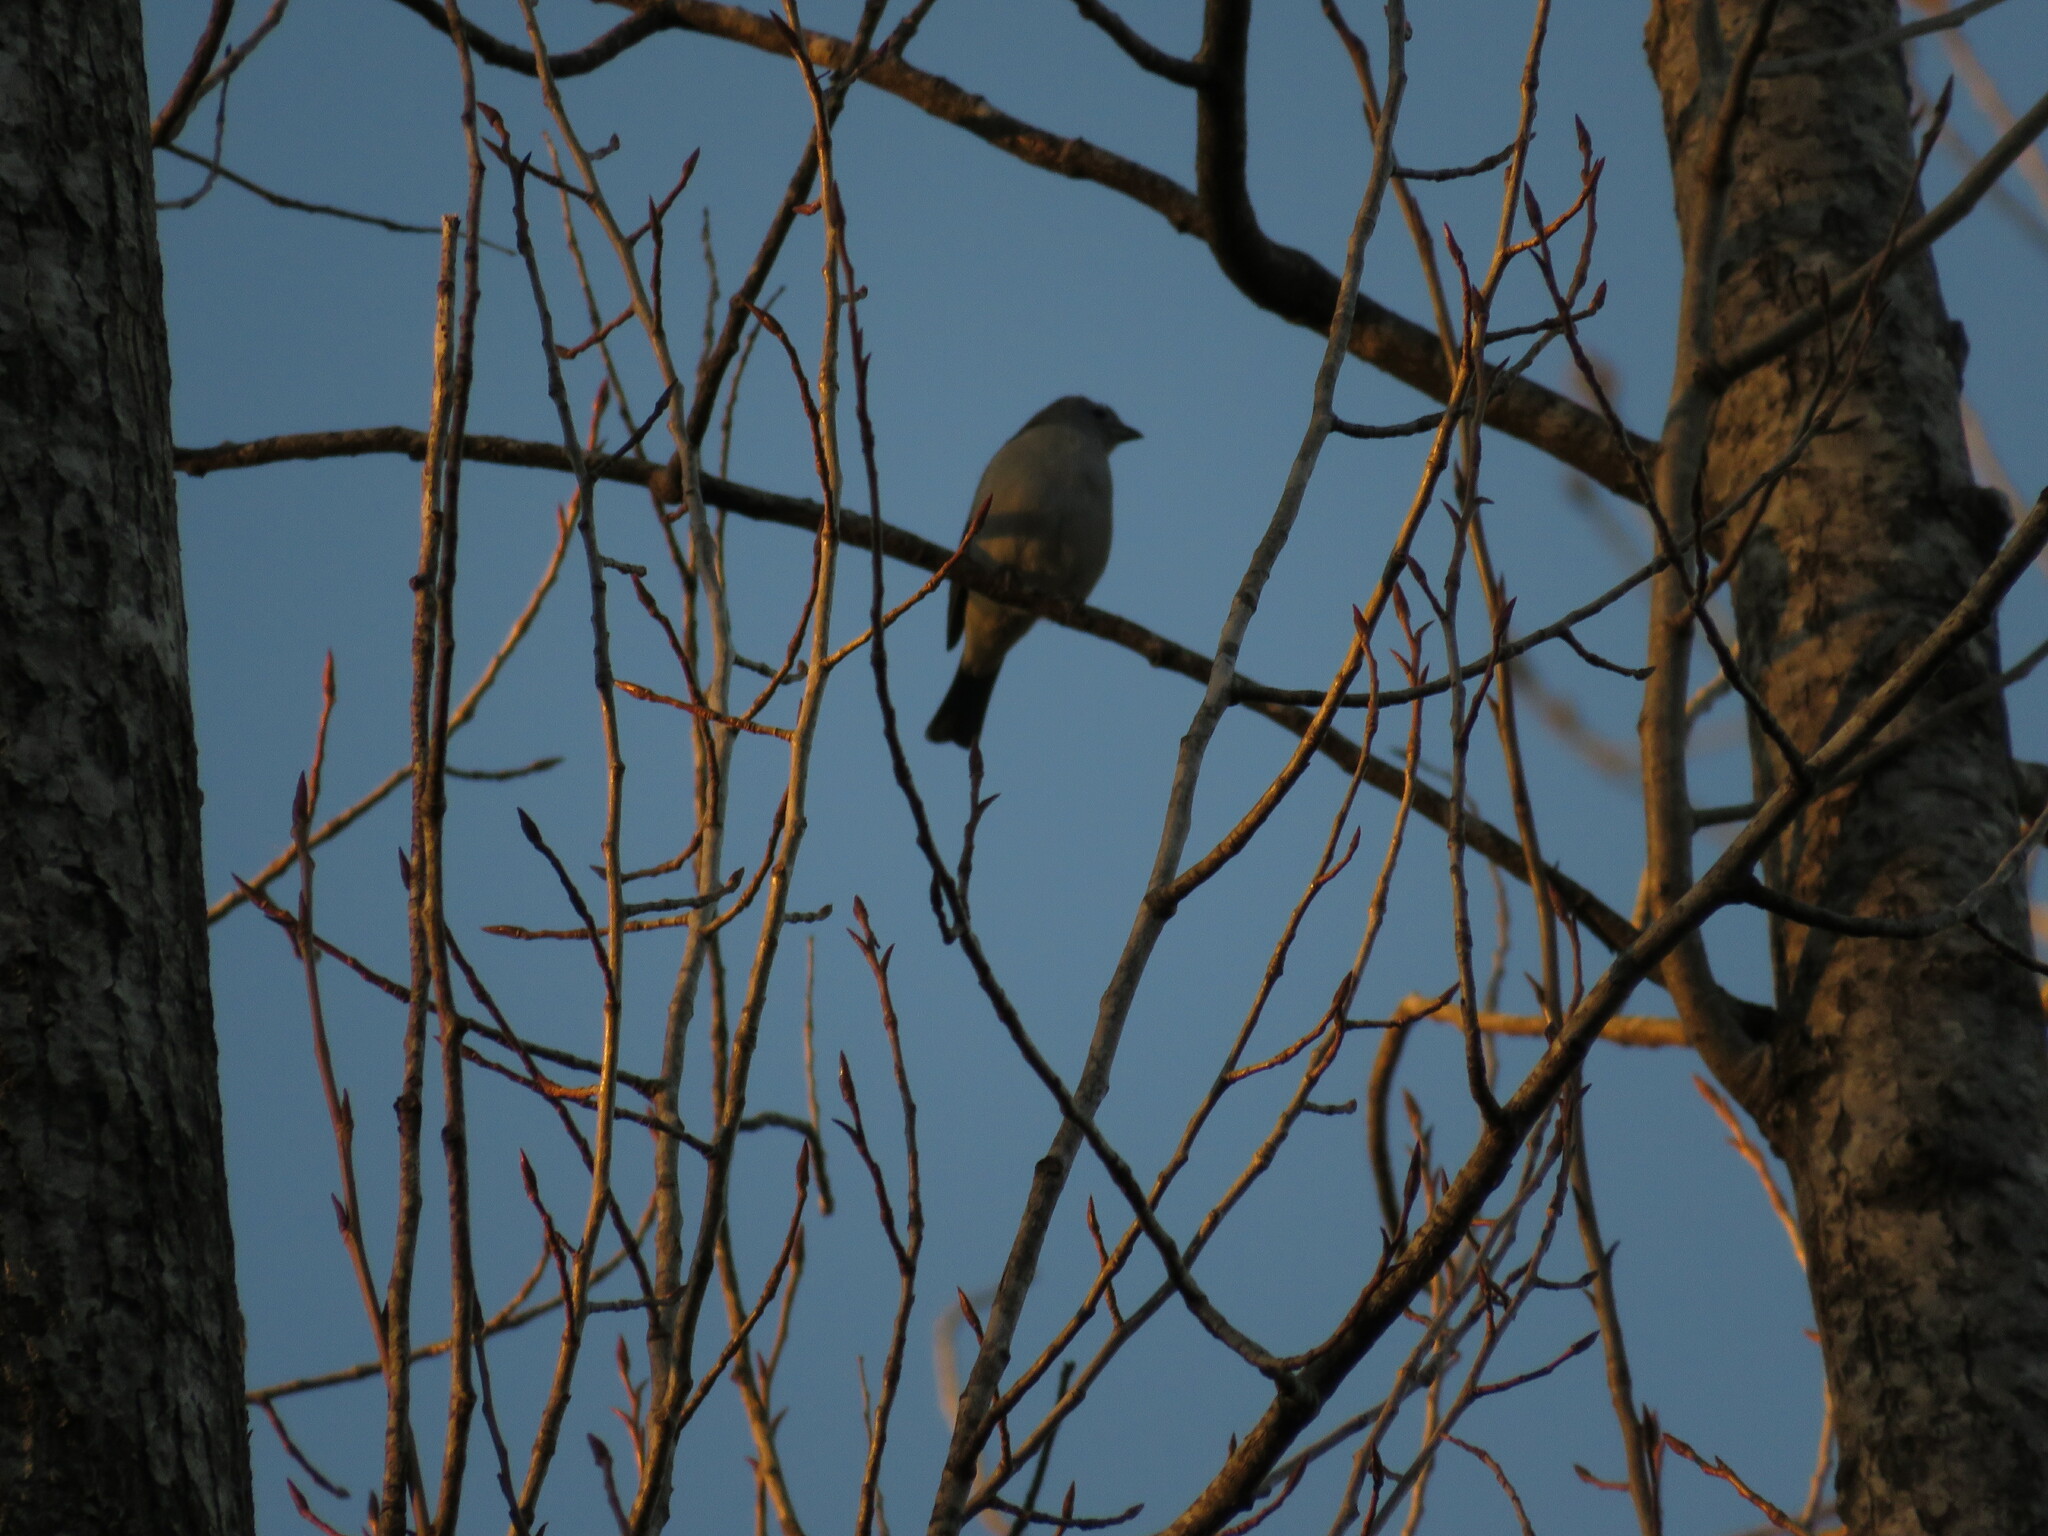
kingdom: Animalia
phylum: Chordata
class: Aves
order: Passeriformes
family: Thraupidae
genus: Thraupis
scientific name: Thraupis sayaca
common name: Sayaca tanager
